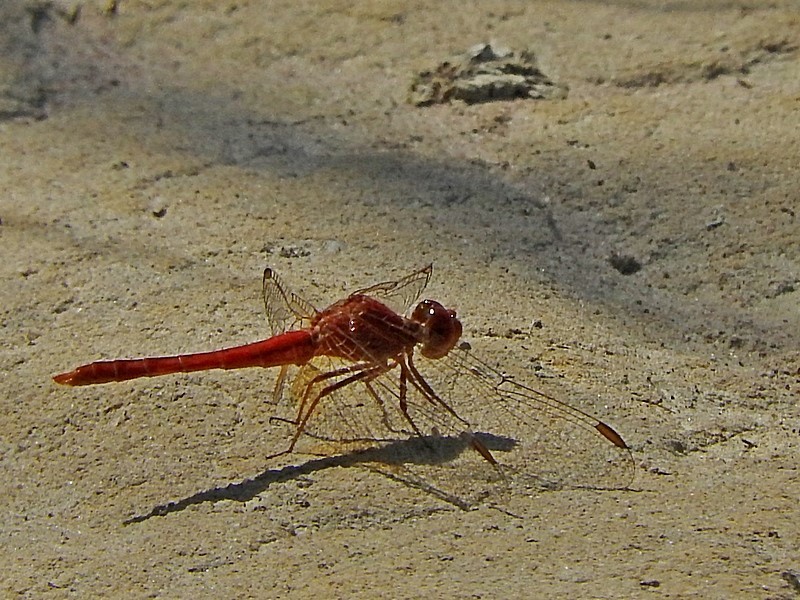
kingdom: Animalia
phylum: Arthropoda
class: Insecta
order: Odonata
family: Libellulidae
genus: Diplacodes
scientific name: Diplacodes haematodes
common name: Scarlet percher
